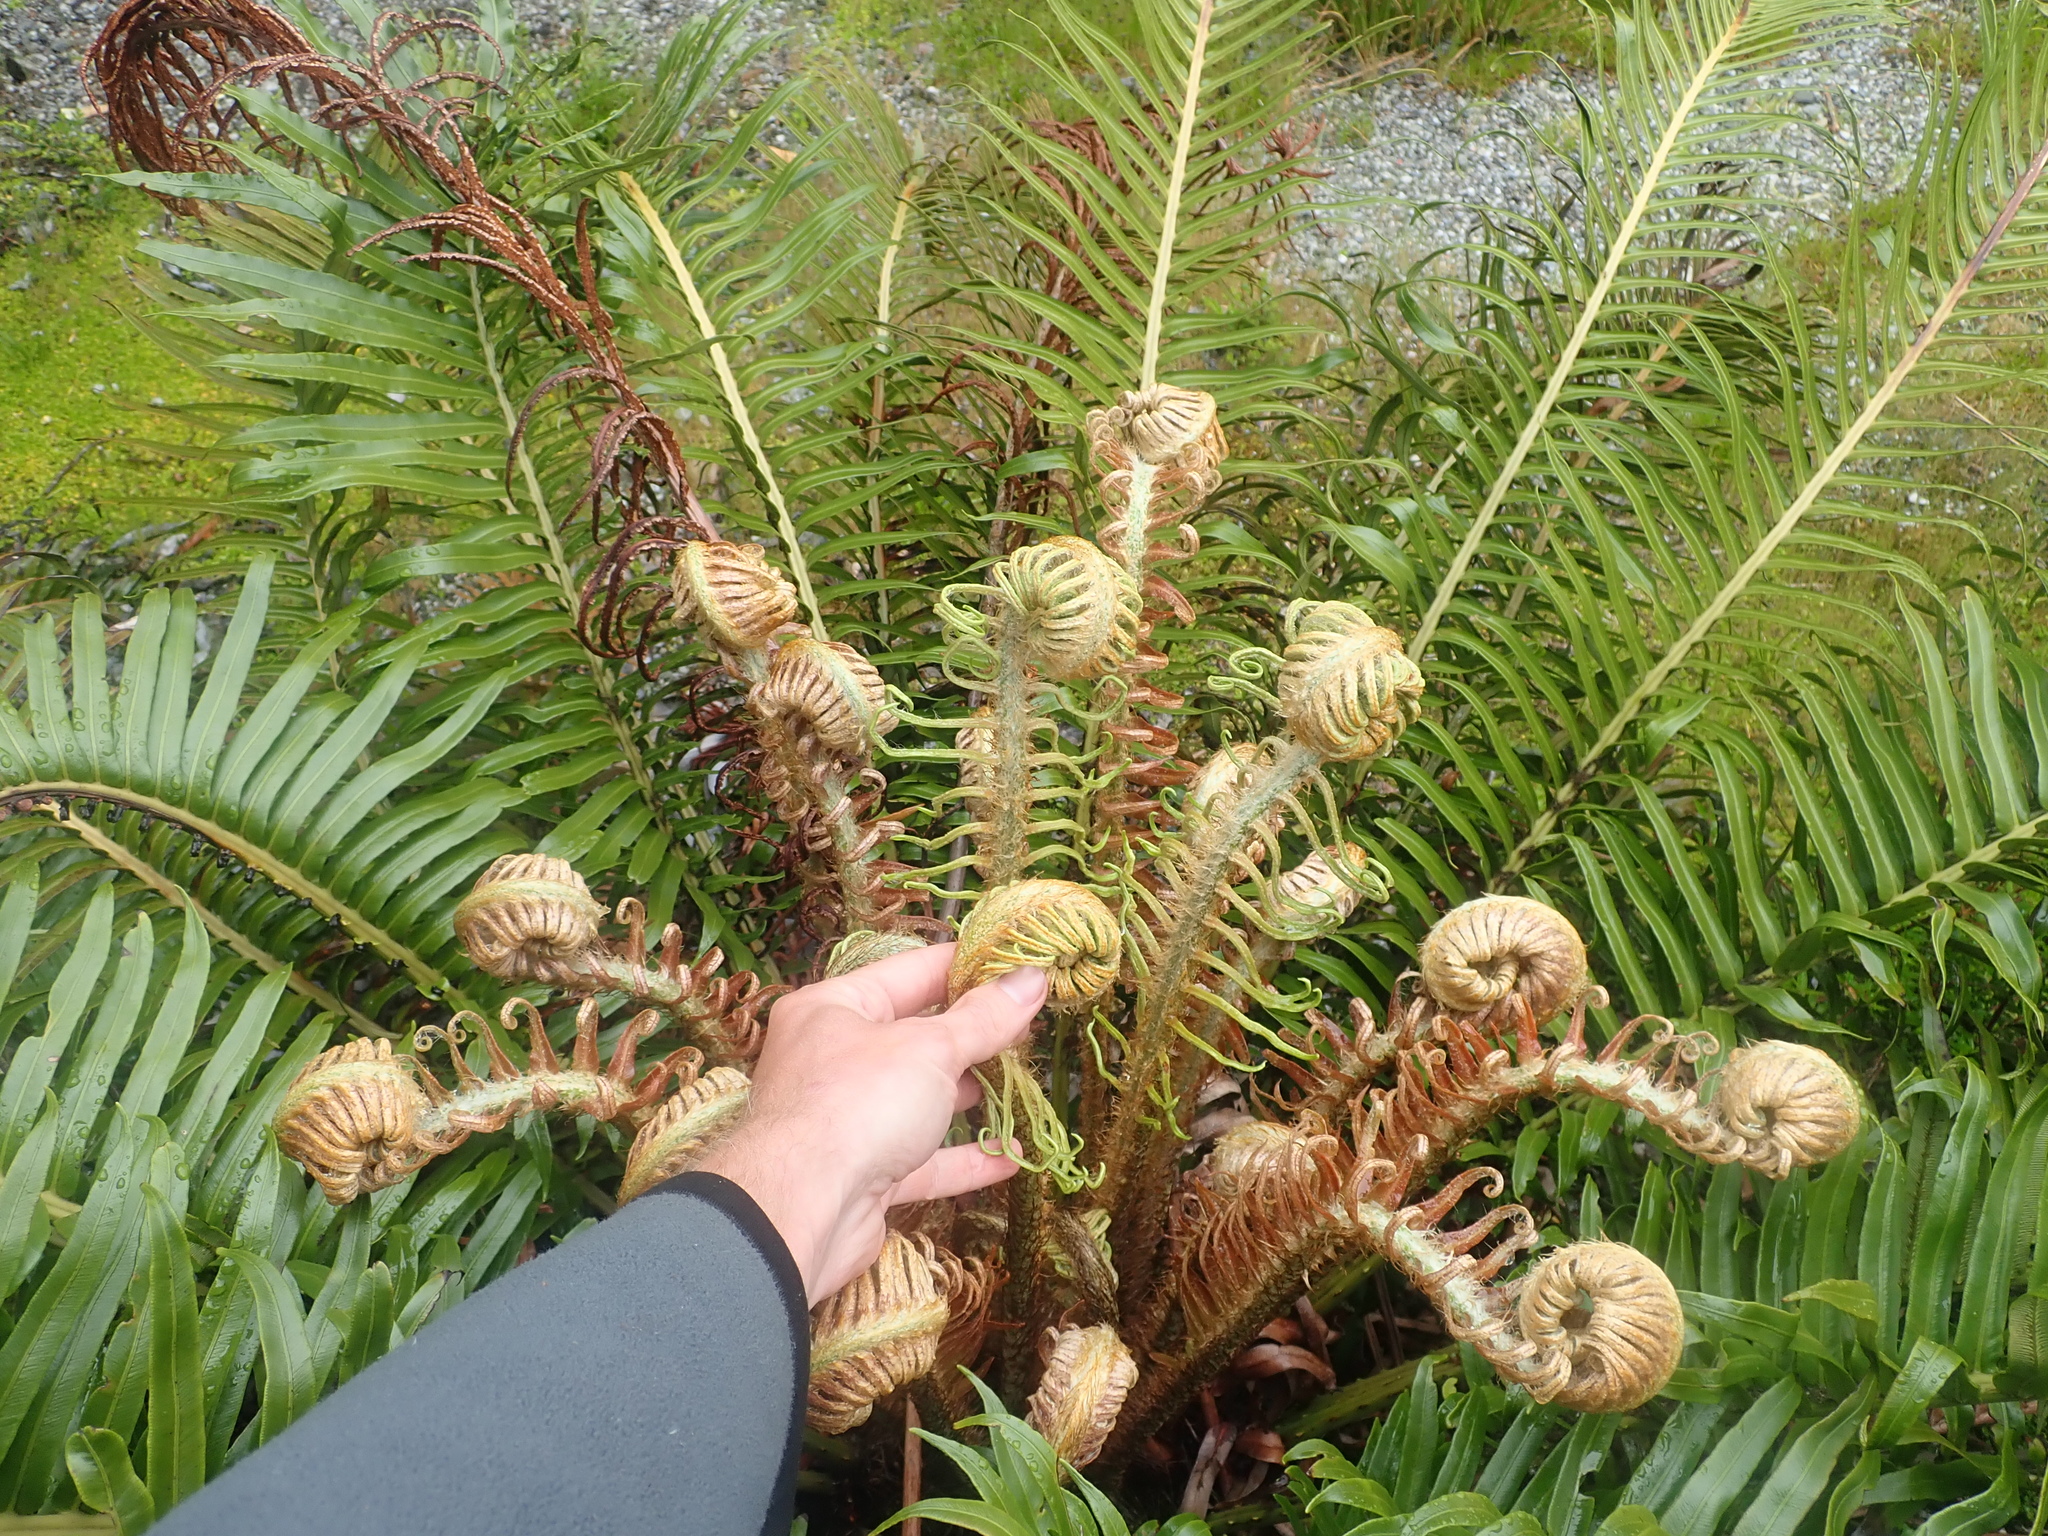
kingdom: Plantae
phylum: Tracheophyta
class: Polypodiopsida
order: Polypodiales
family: Blechnaceae
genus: Lomariocycas
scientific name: Lomariocycas magellanica
